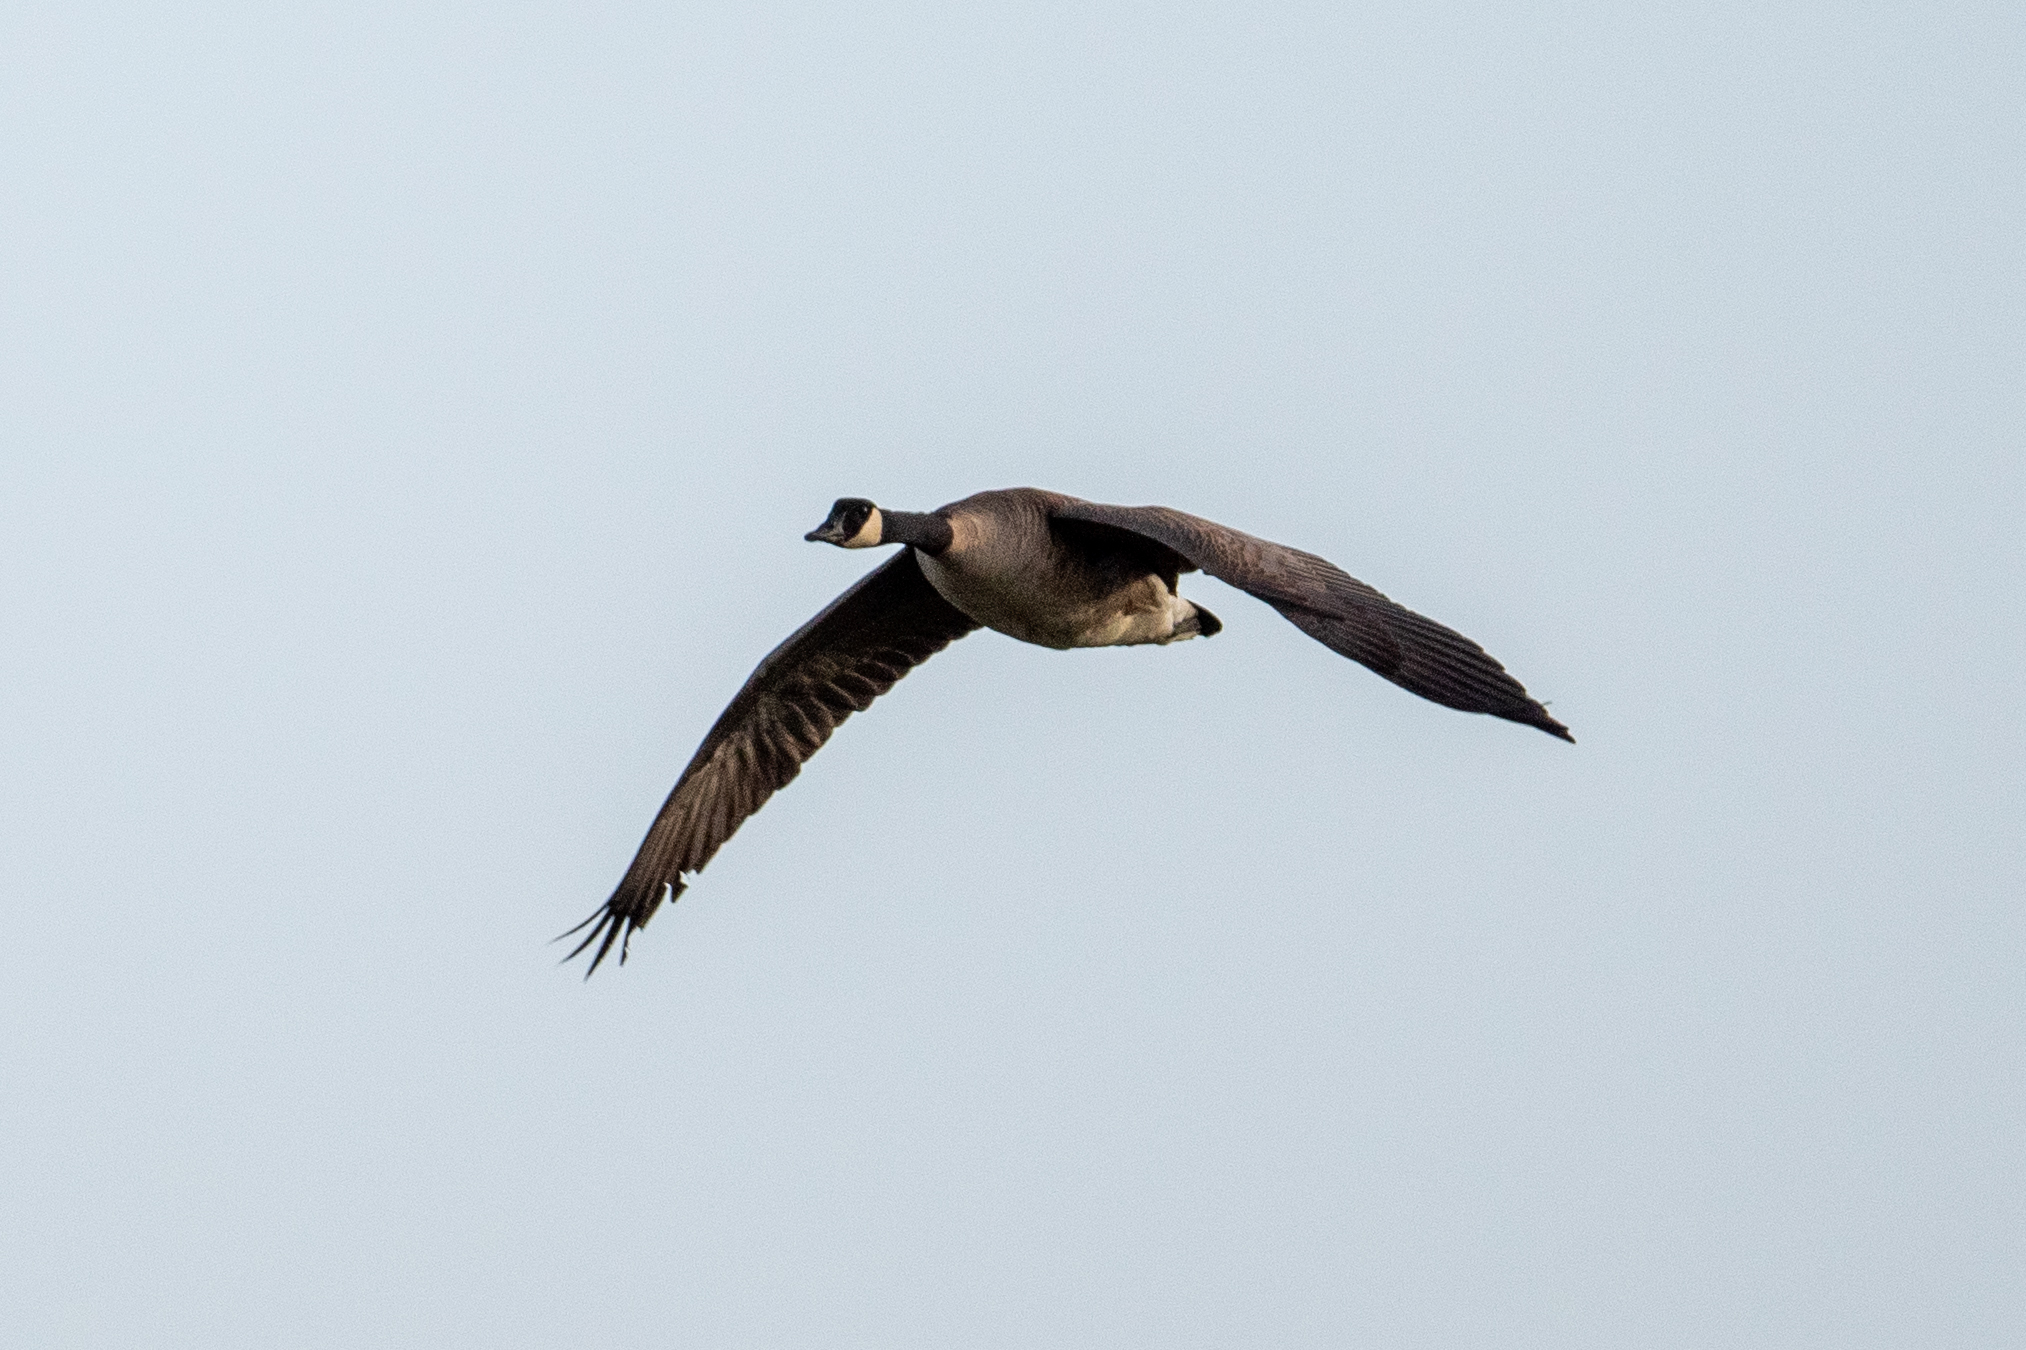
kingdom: Animalia
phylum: Chordata
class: Aves
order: Anseriformes
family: Anatidae
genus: Branta
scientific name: Branta canadensis
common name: Canada goose
